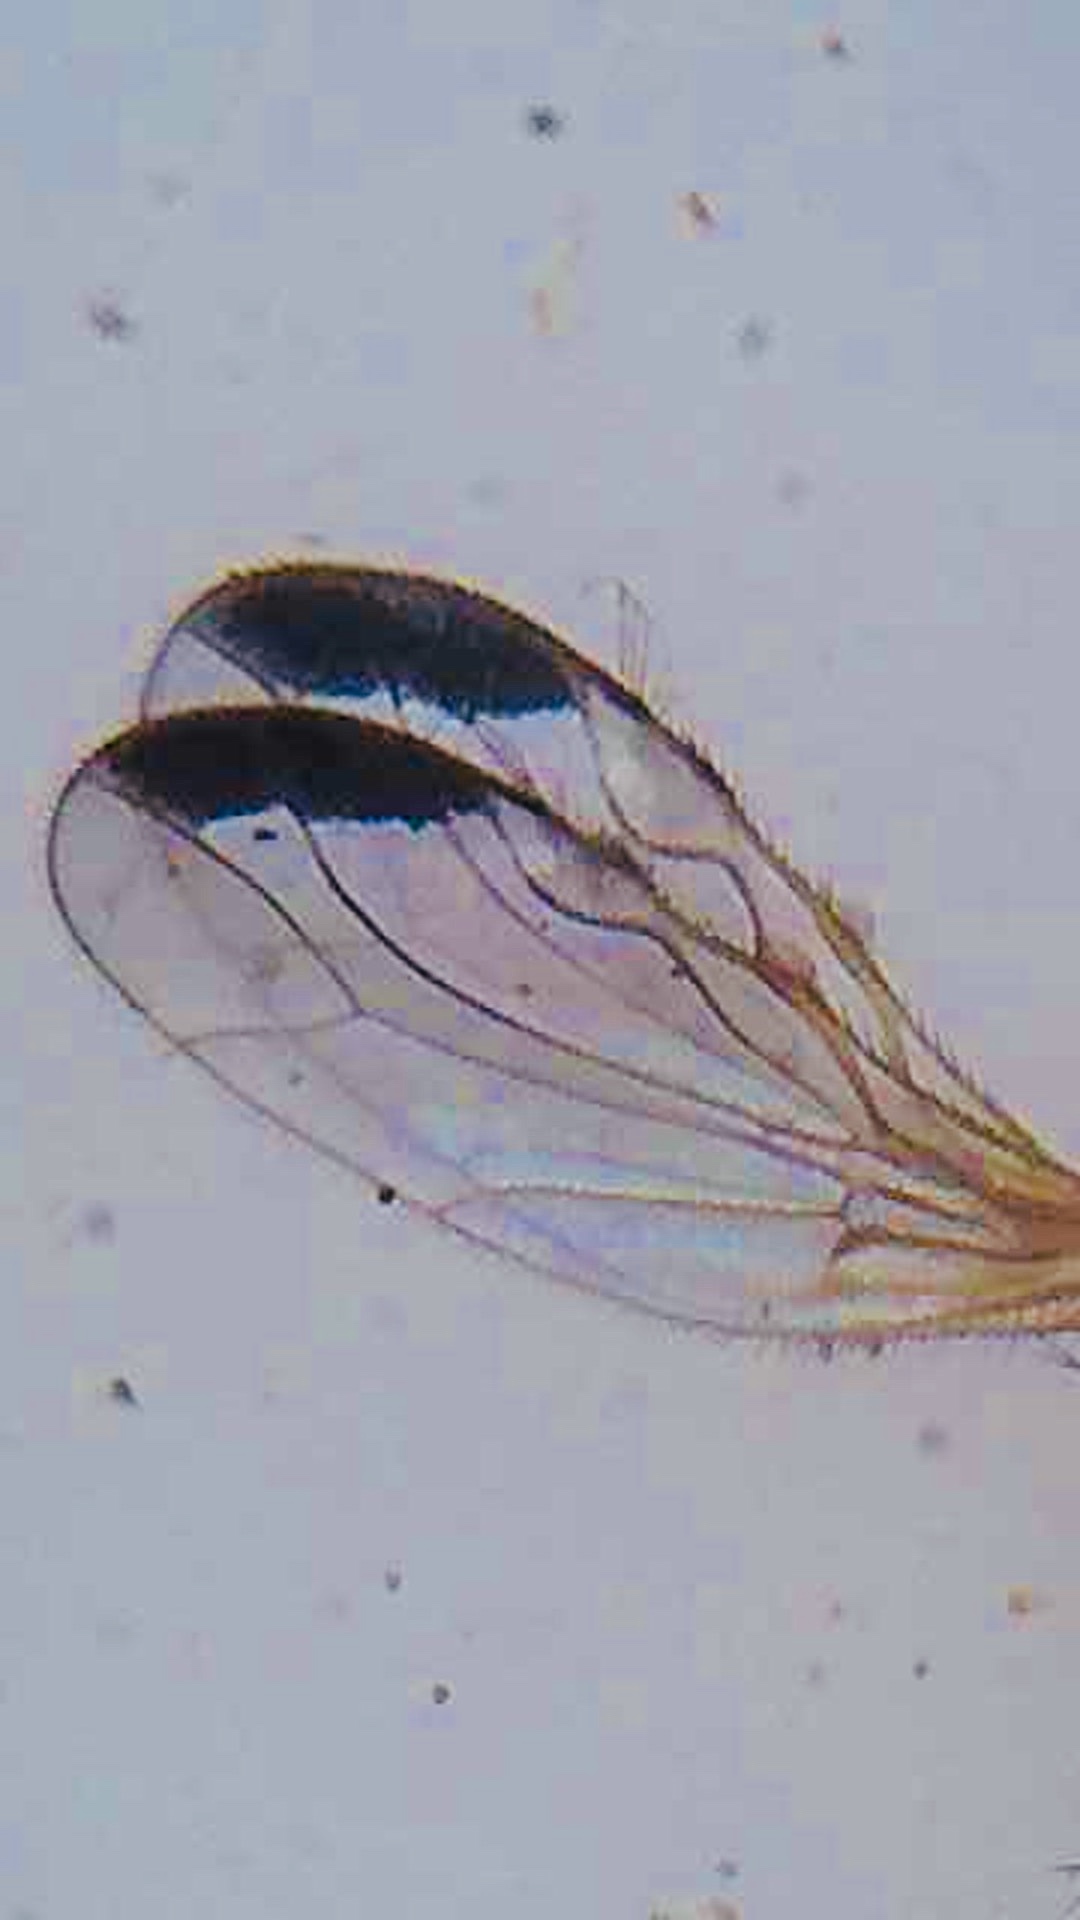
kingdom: Animalia
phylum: Arthropoda
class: Insecta
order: Diptera
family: Empididae
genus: Phyllodromia
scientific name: Phyllodromia flexura
